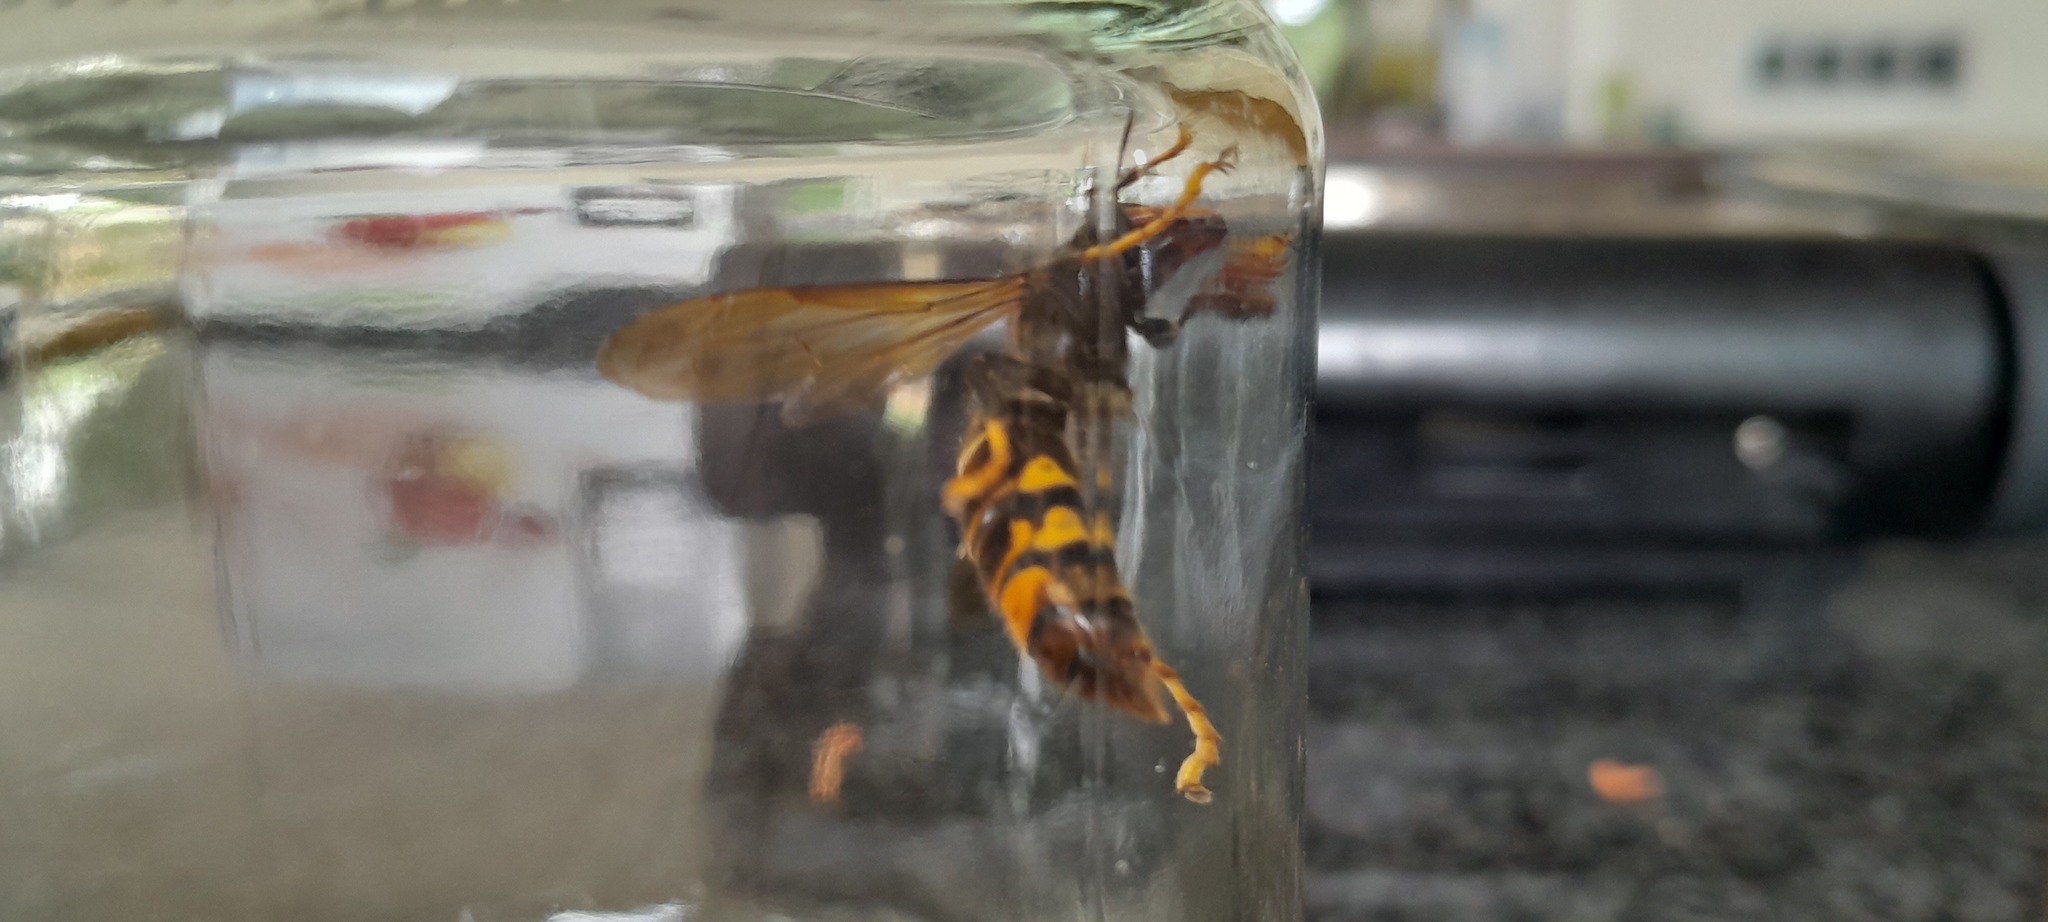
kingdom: Animalia
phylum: Arthropoda
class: Insecta
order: Hymenoptera
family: Vespidae
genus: Vespa
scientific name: Vespa velutina
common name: Asian hornet
